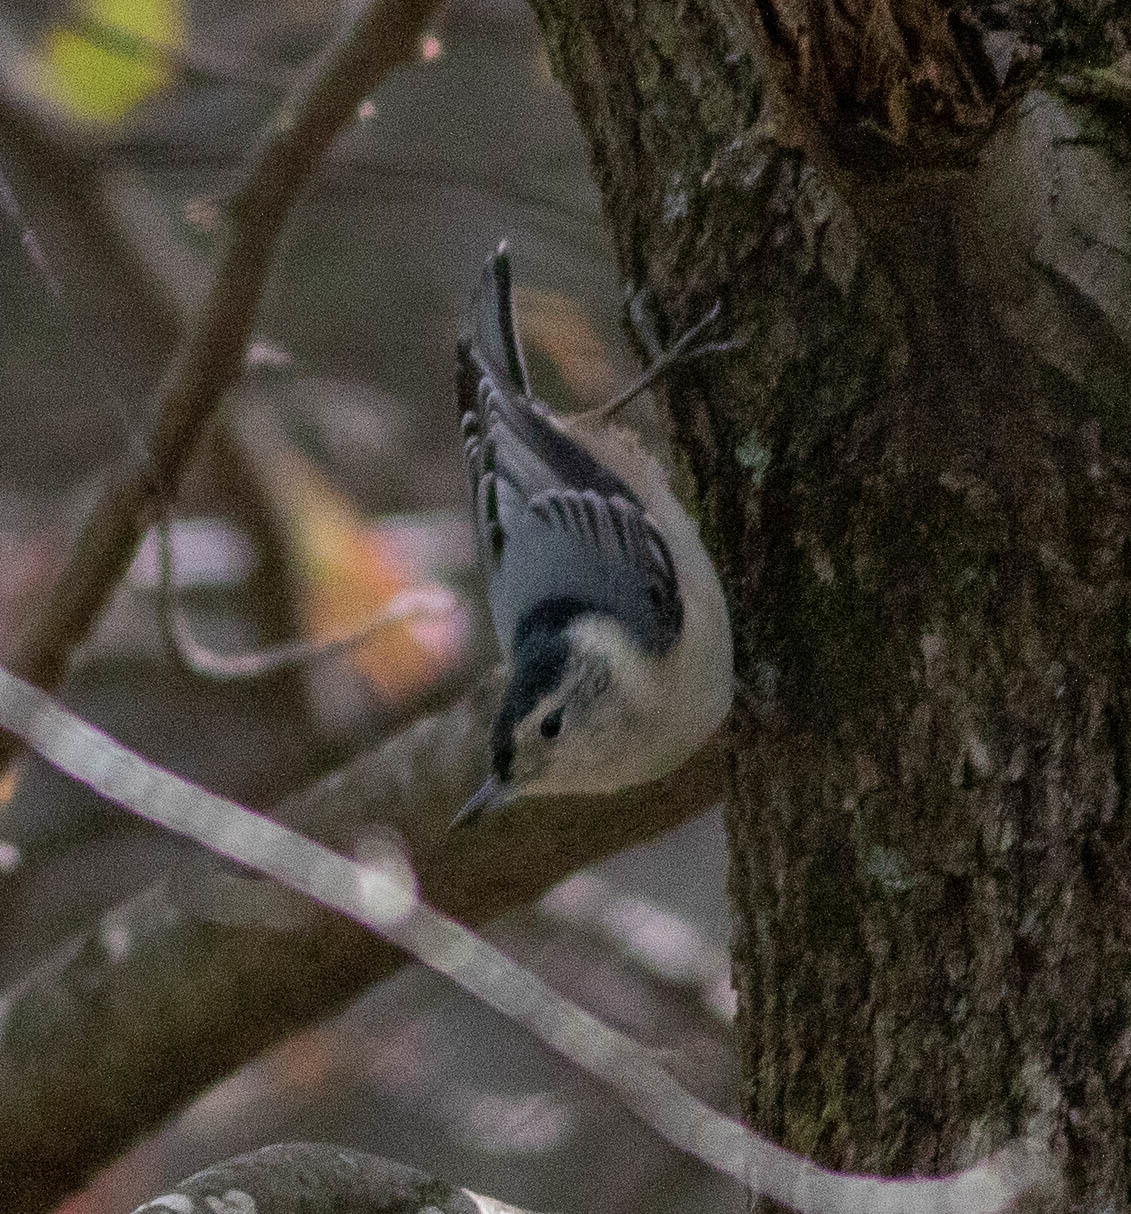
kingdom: Animalia
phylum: Chordata
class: Aves
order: Passeriformes
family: Sittidae
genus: Sitta
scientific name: Sitta carolinensis
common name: White-breasted nuthatch
